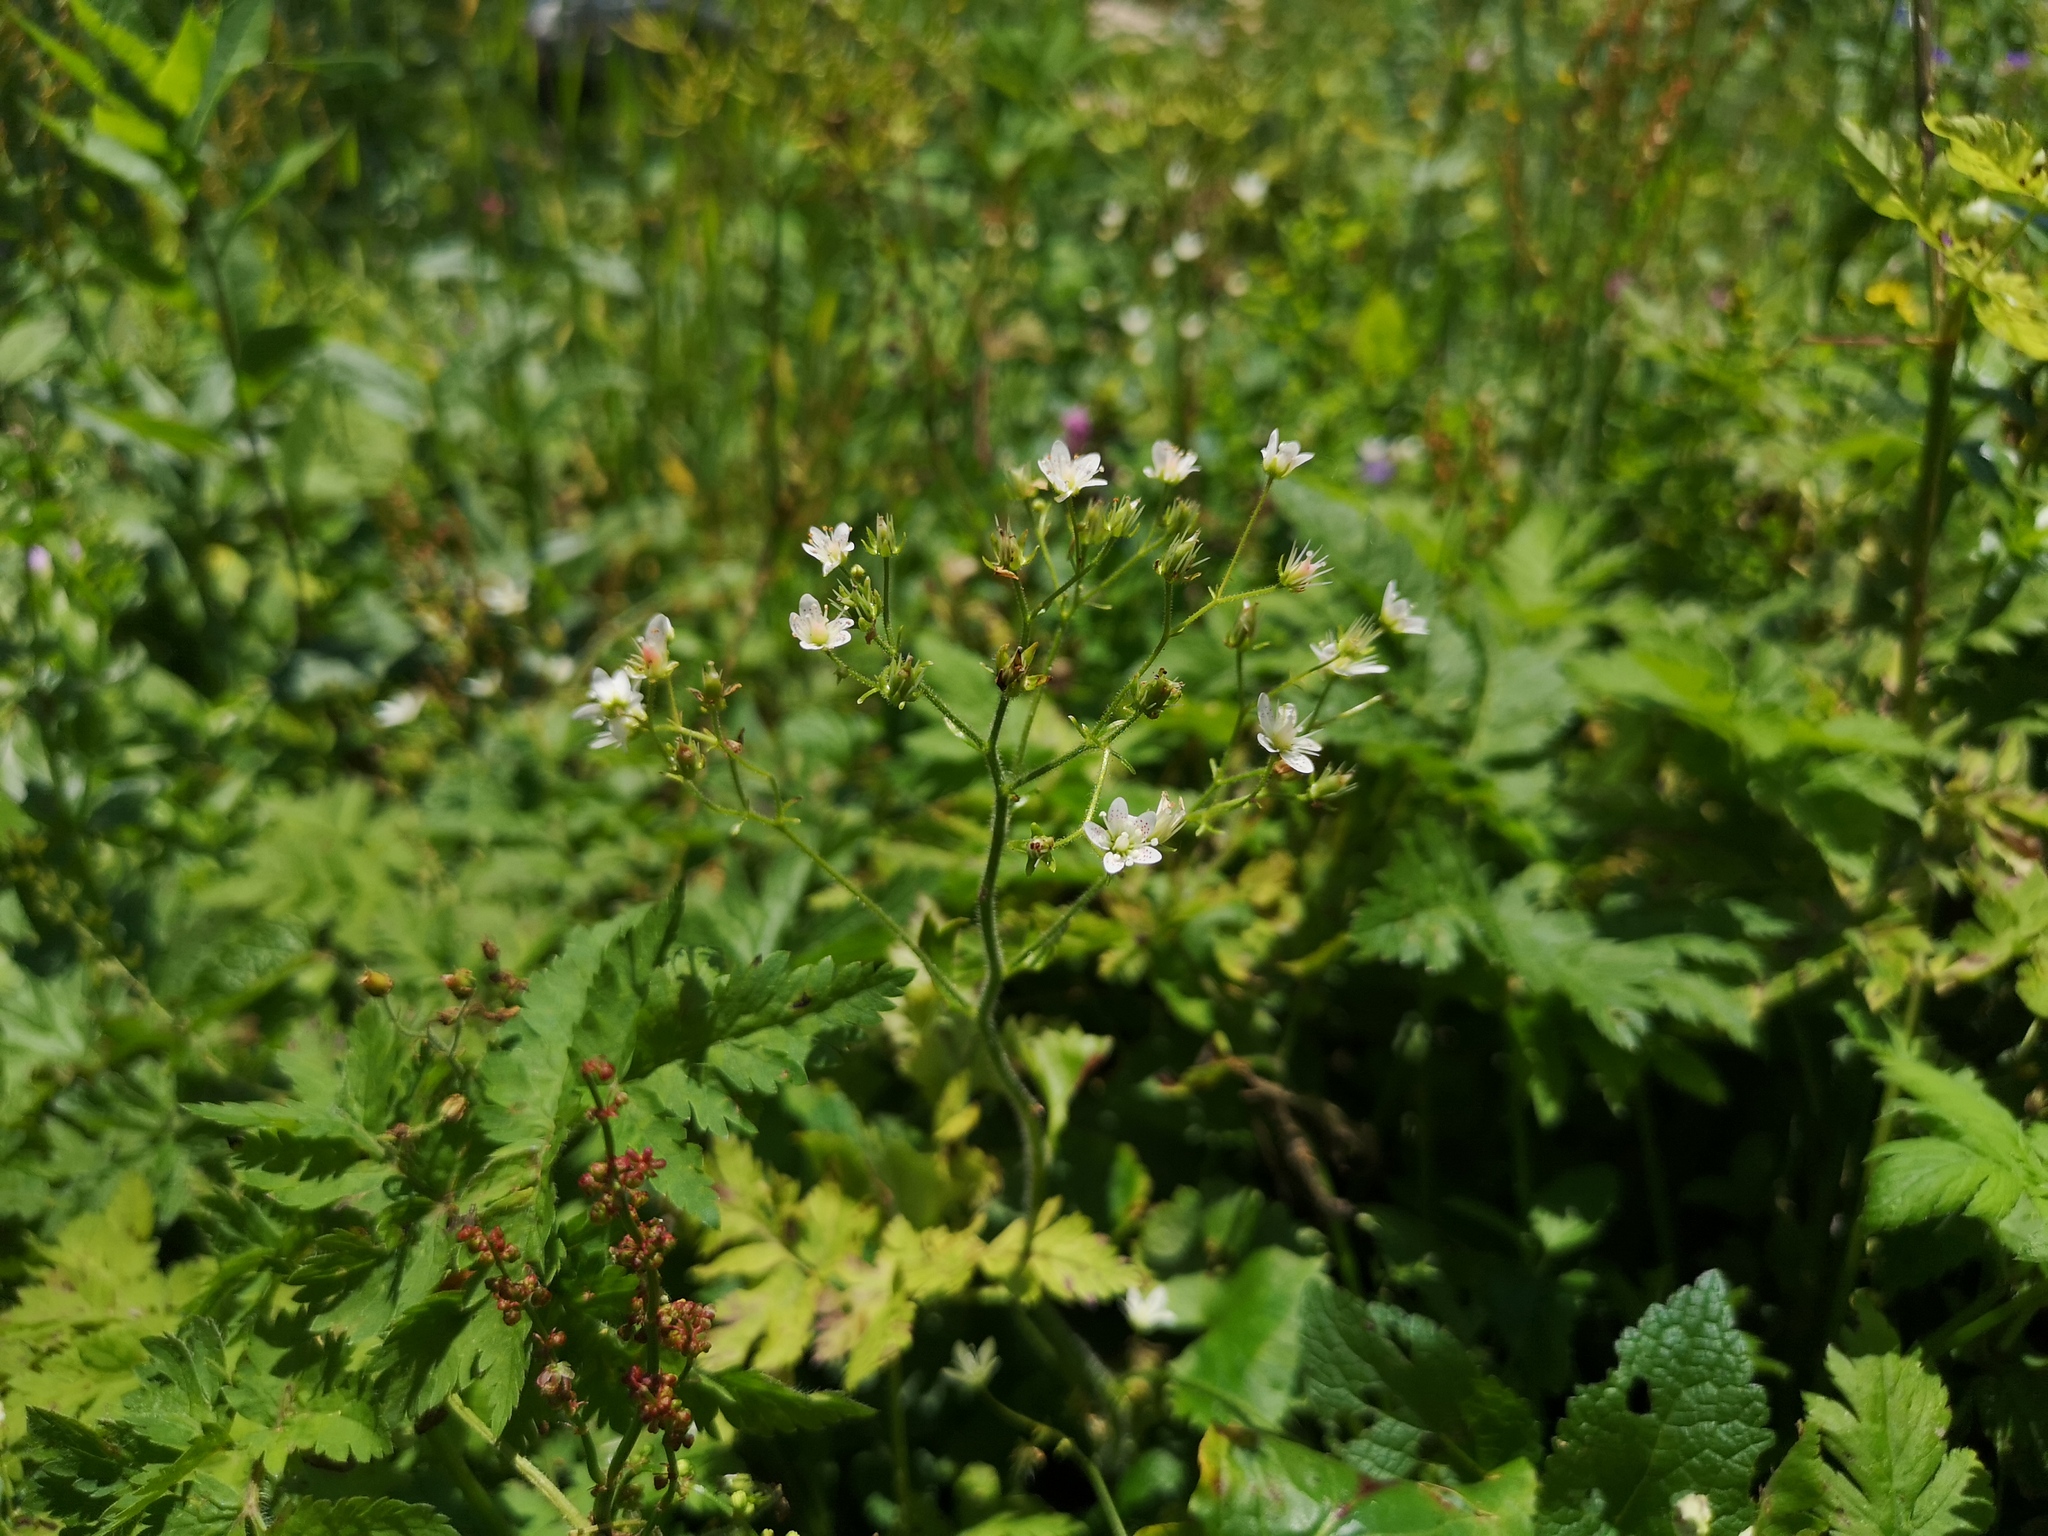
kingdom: Plantae
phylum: Tracheophyta
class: Magnoliopsida
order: Saxifragales
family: Saxifragaceae
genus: Saxifraga
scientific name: Saxifraga rotundifolia
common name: Round-leaved saxifrage
